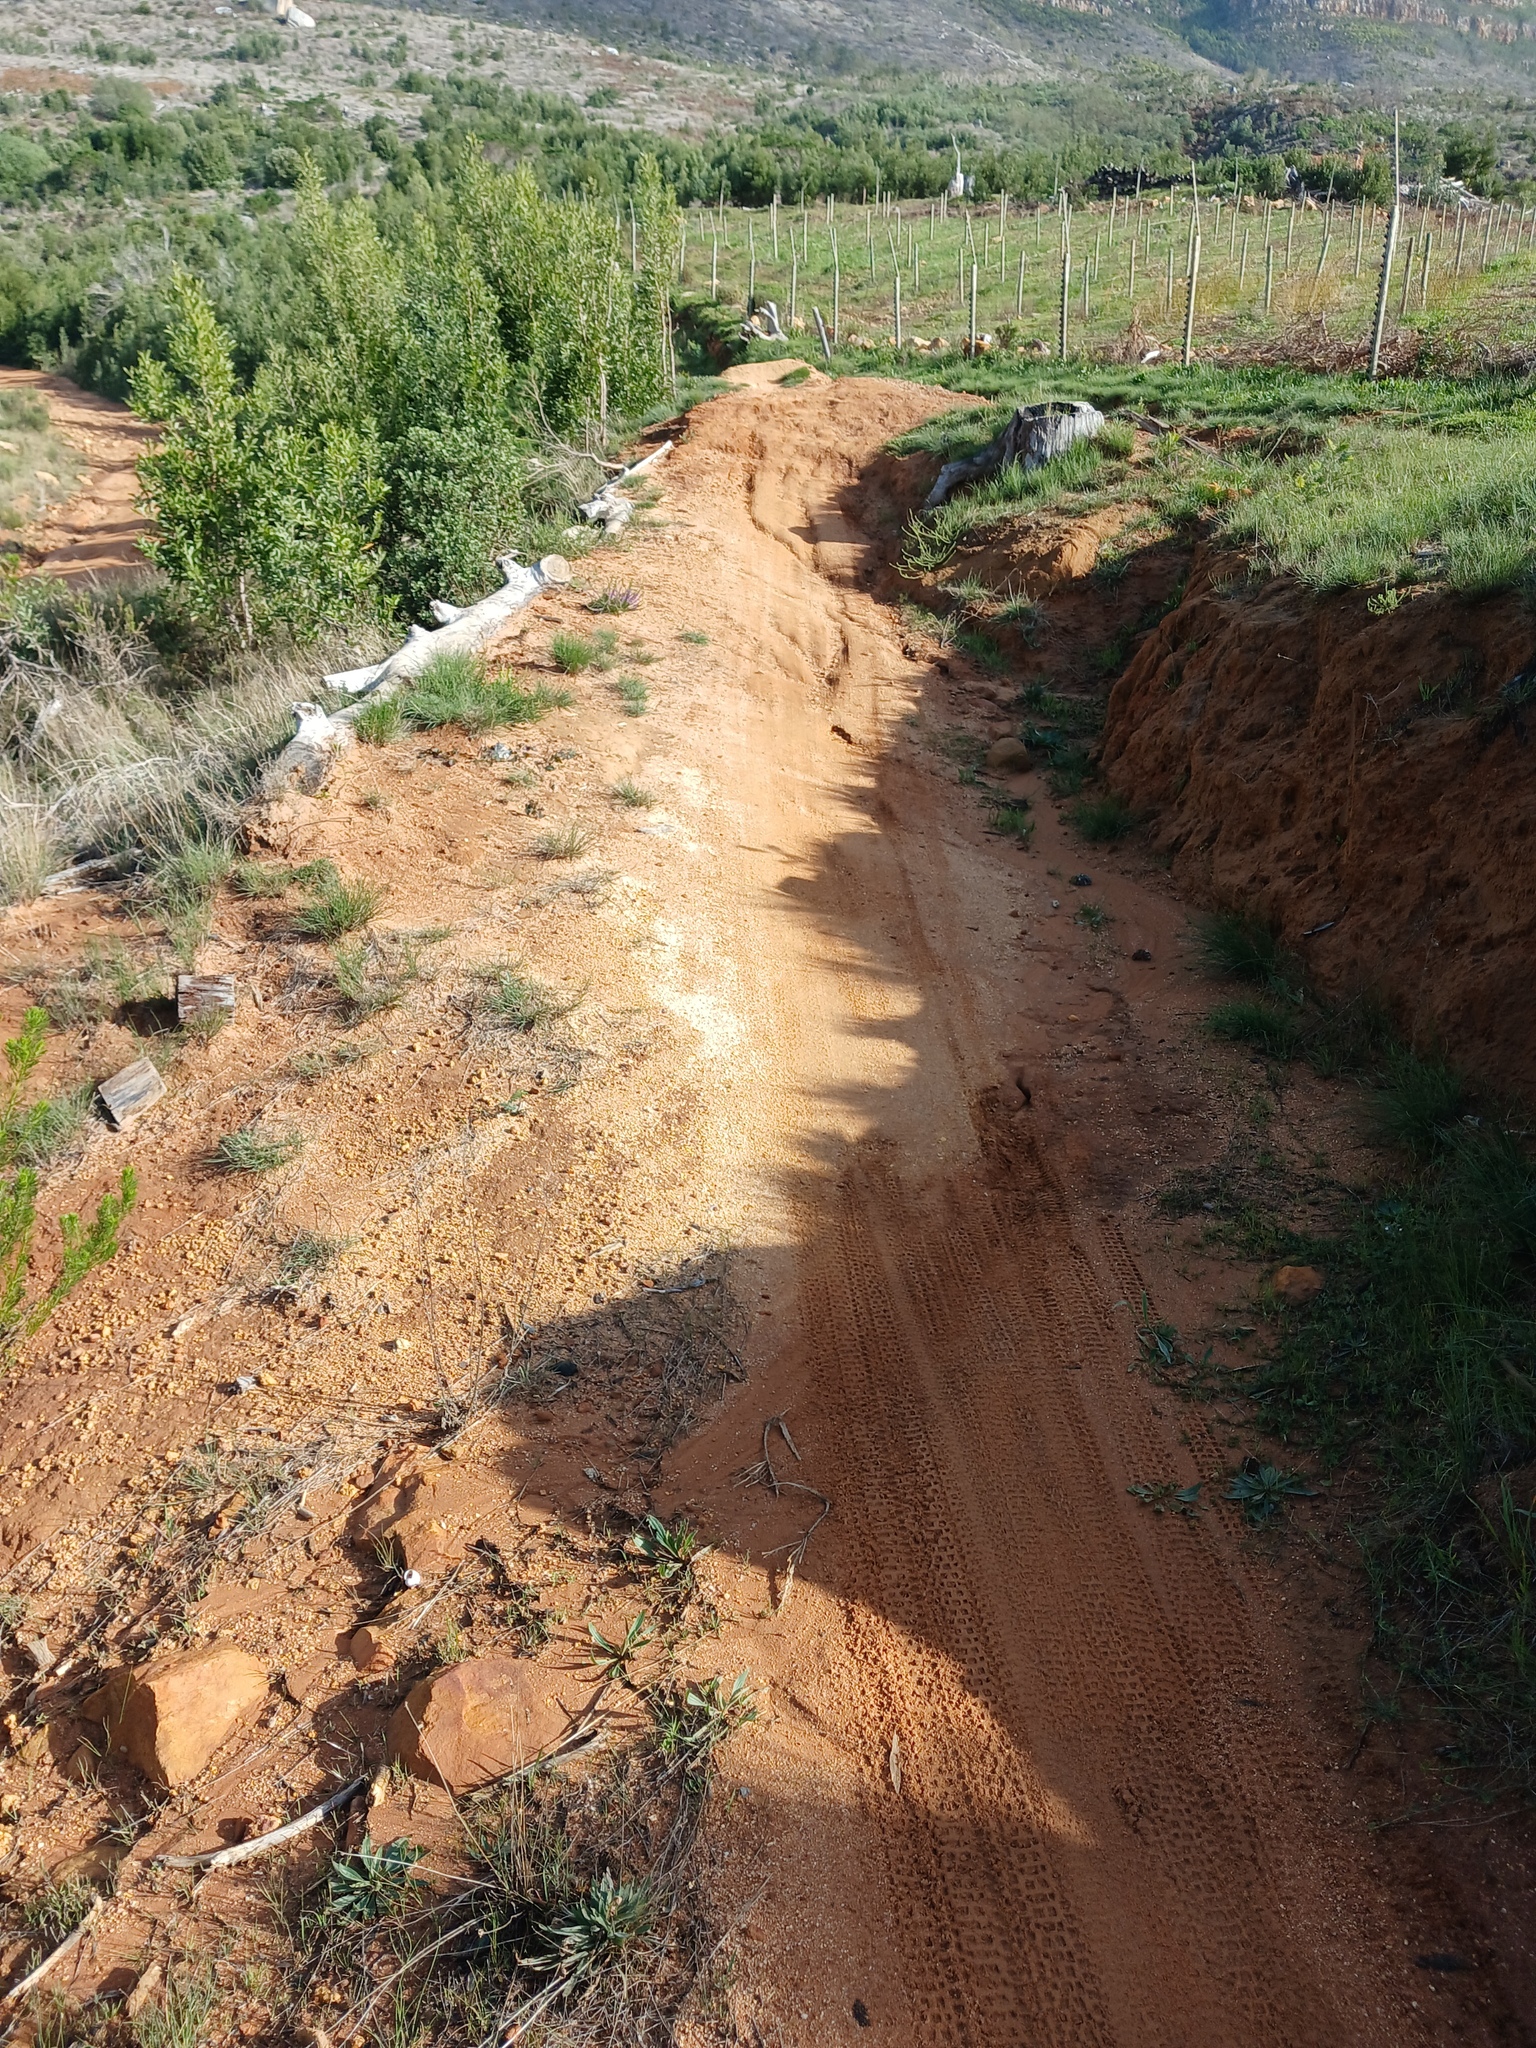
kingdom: Plantae
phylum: Tracheophyta
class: Magnoliopsida
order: Fabales
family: Fabaceae
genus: Acacia
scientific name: Acacia melanoxylon
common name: Blackwood
